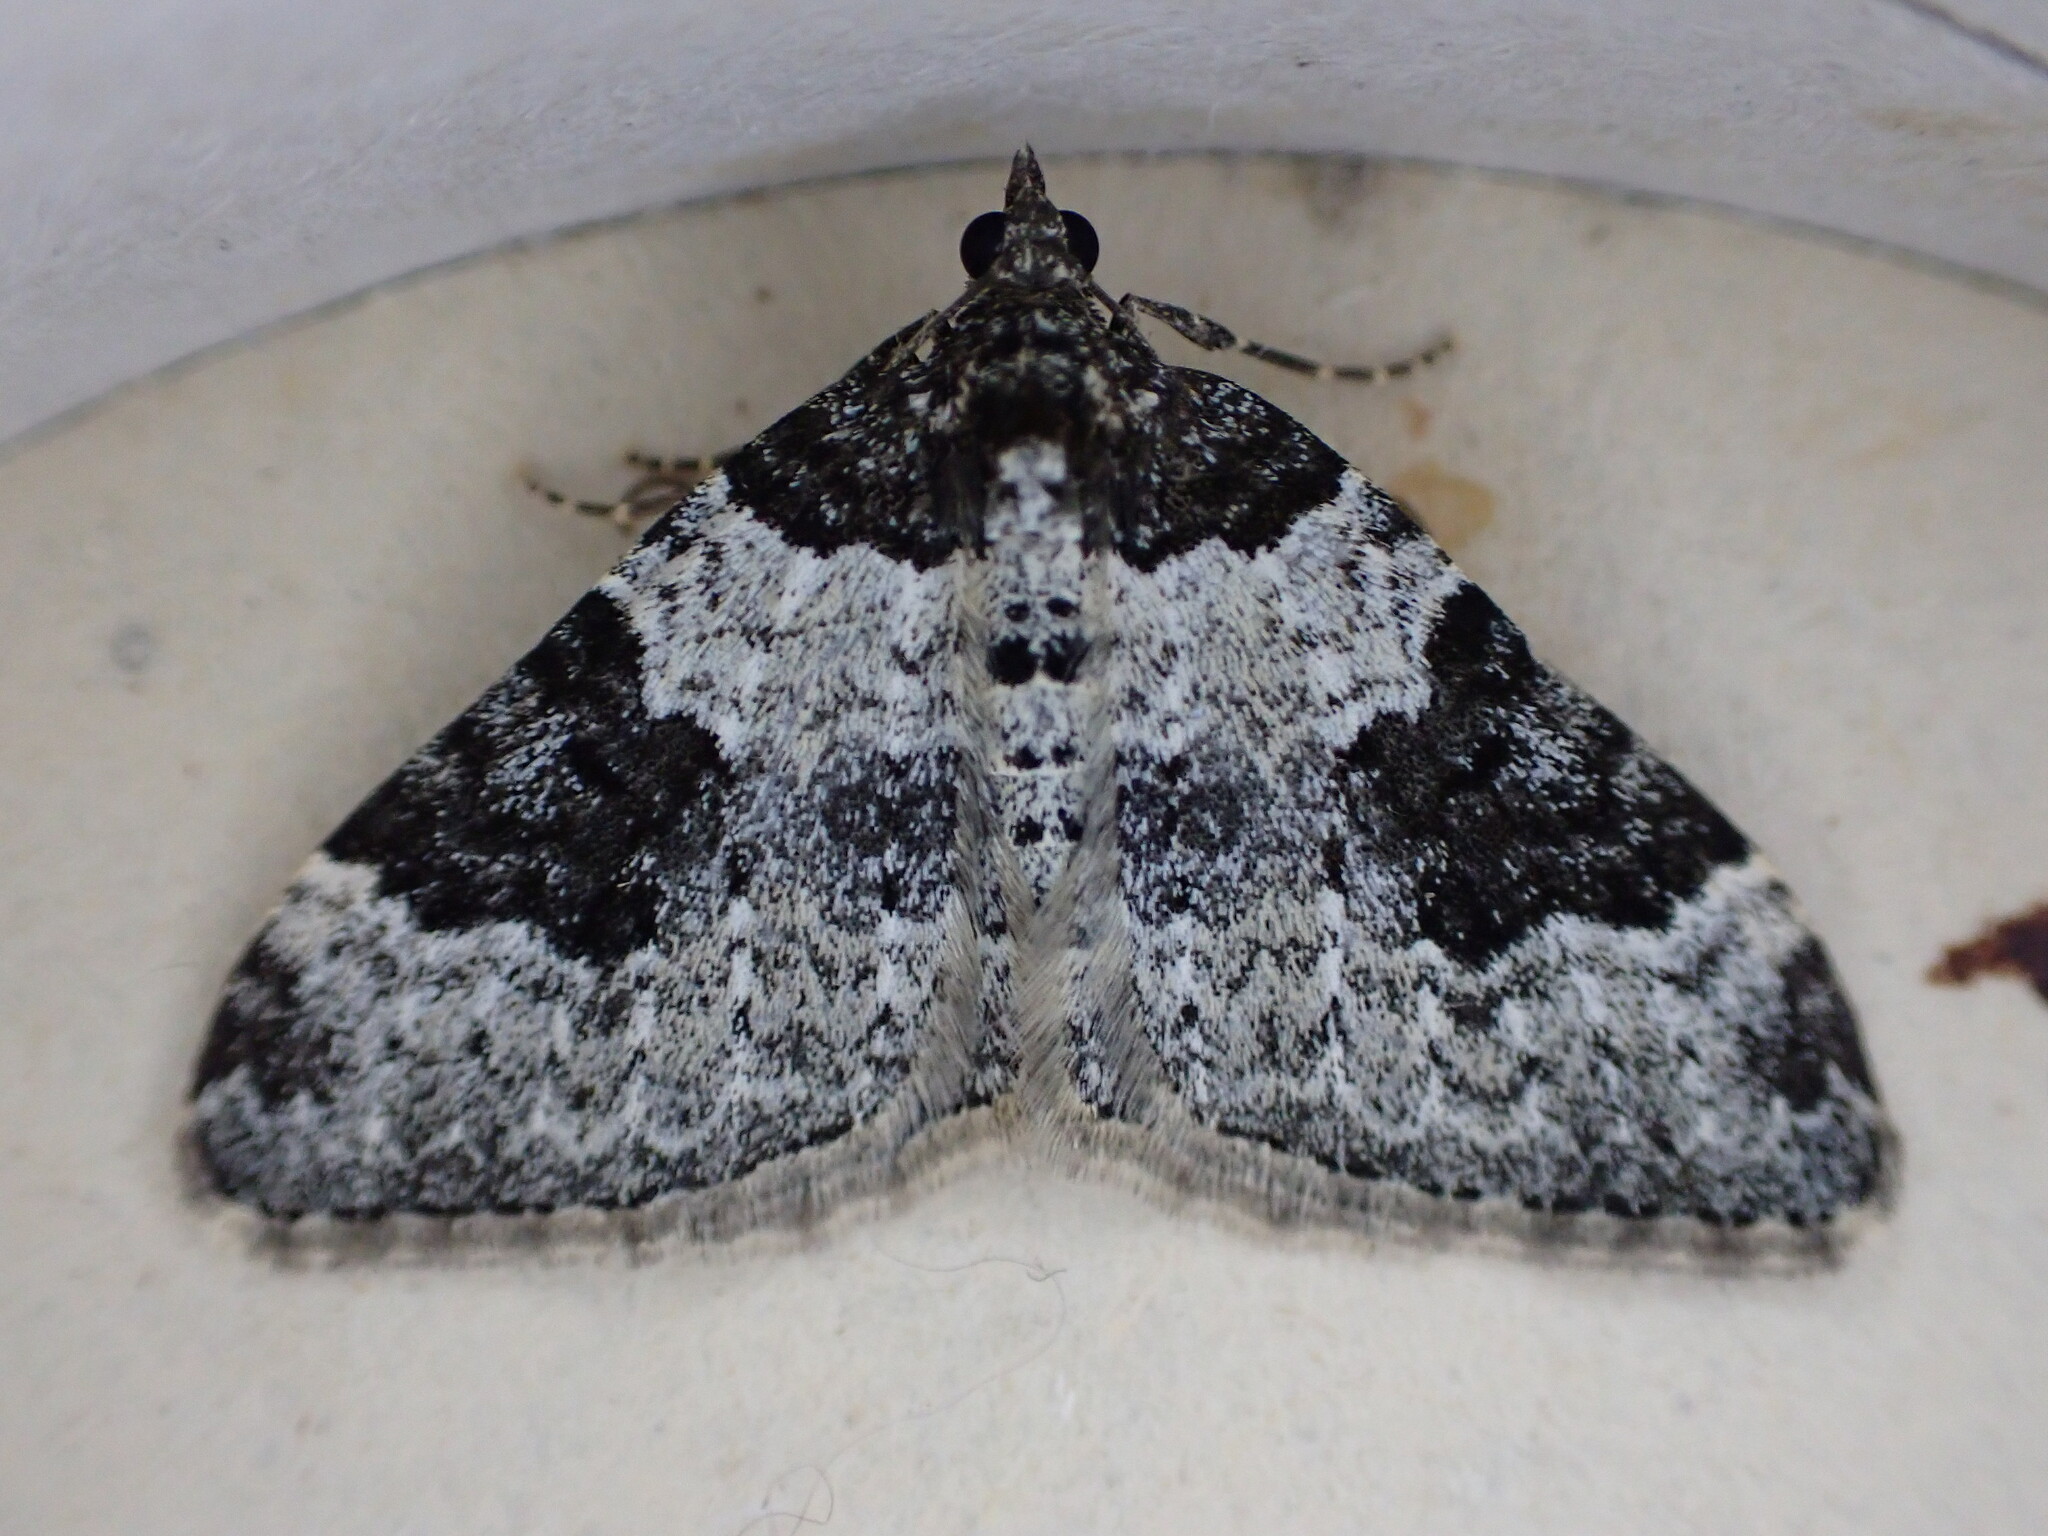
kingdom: Animalia
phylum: Arthropoda
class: Insecta
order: Lepidoptera
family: Geometridae
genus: Xanthorhoe
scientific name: Xanthorhoe fluctuata
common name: Garden carpet
